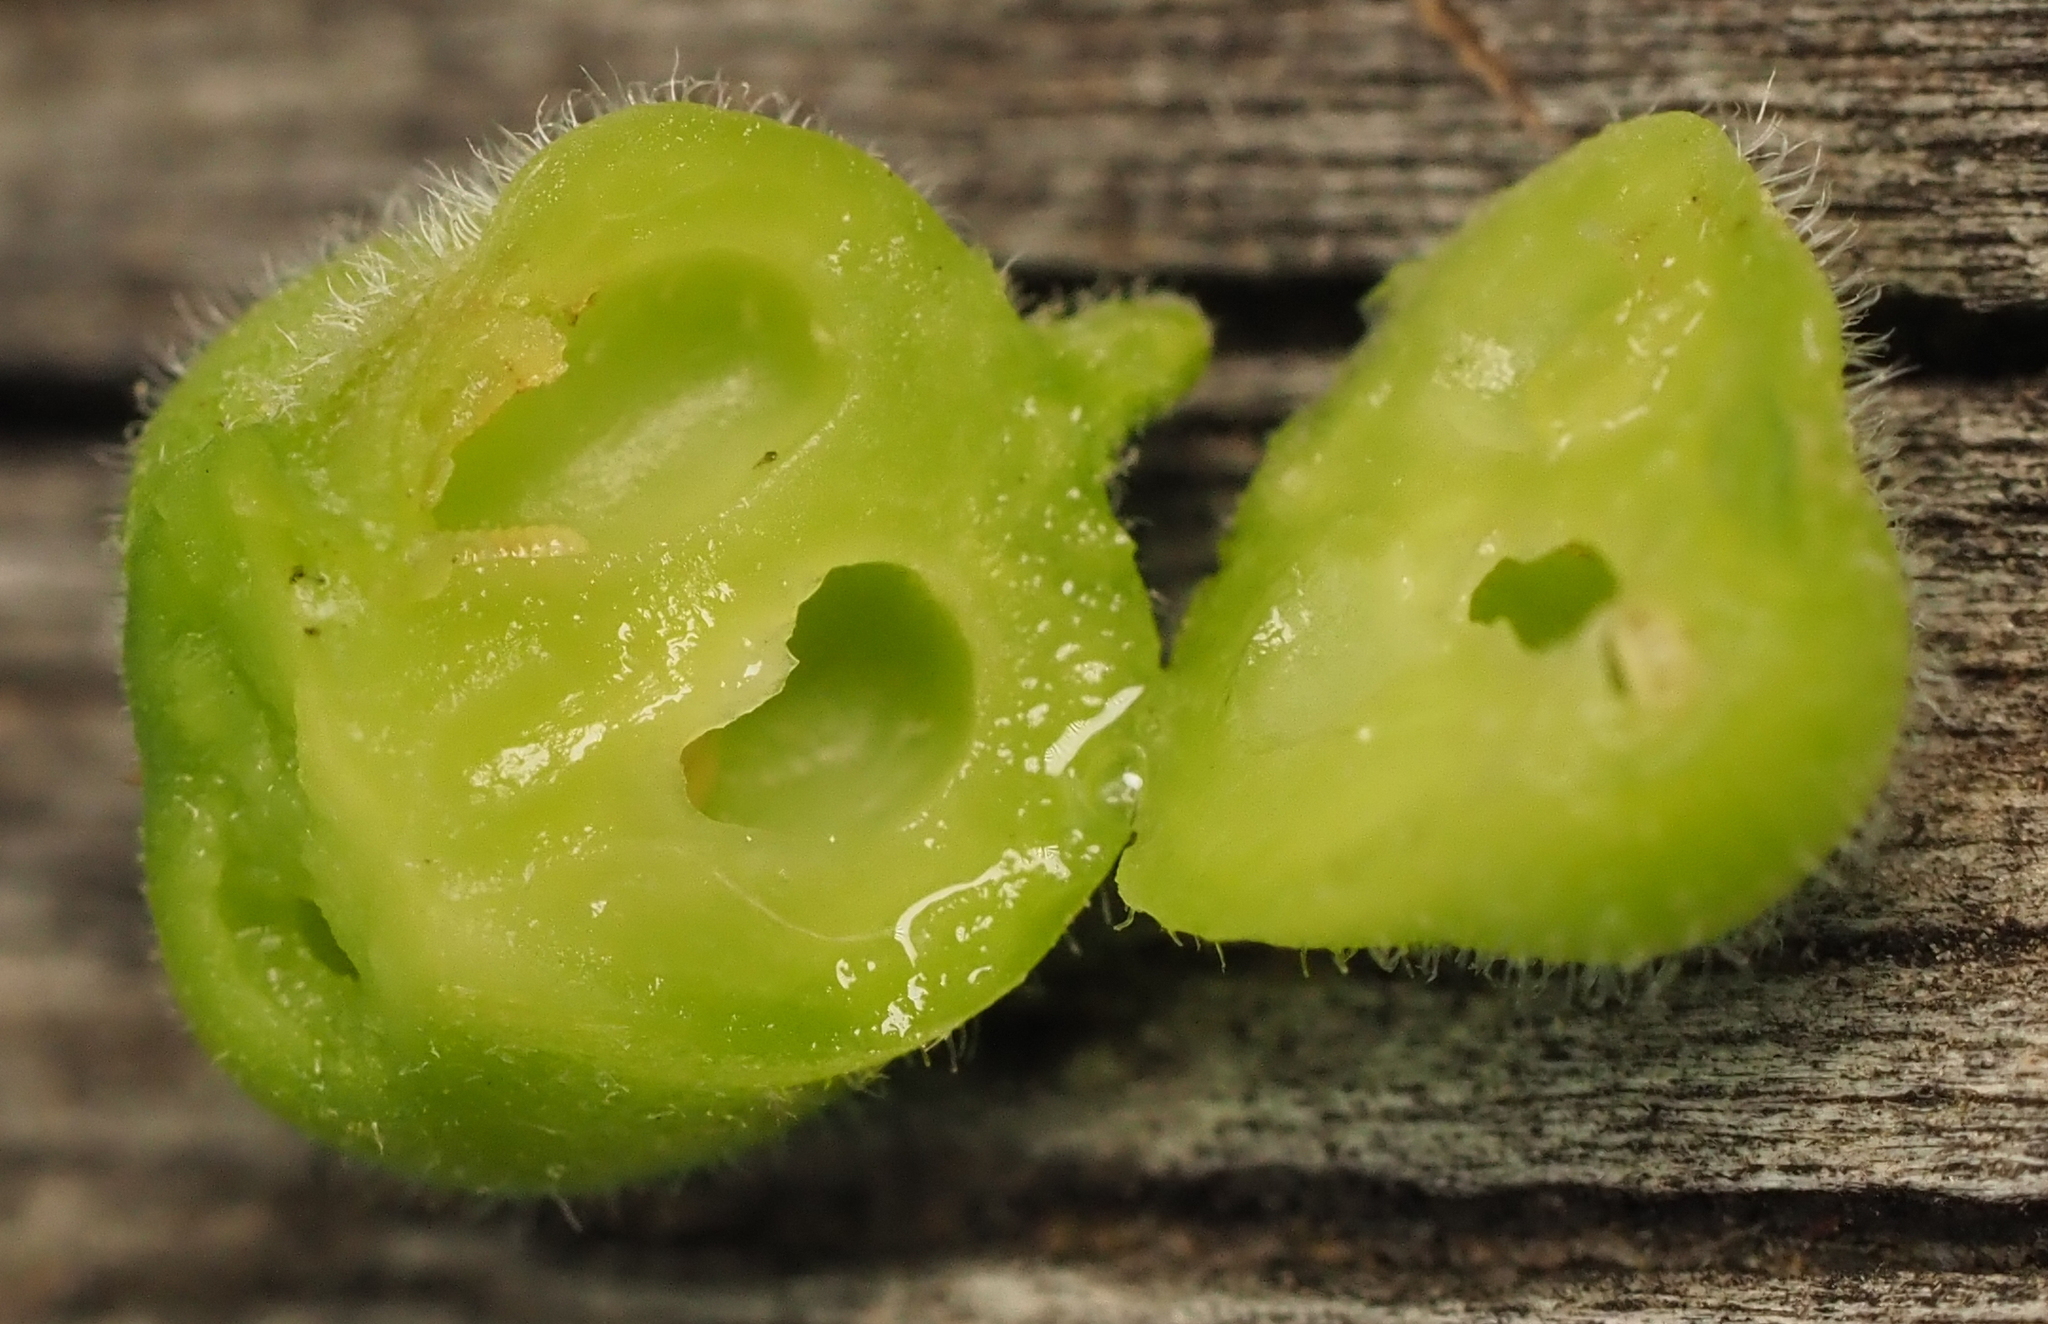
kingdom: Animalia
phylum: Arthropoda
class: Insecta
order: Diptera
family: Cecidomyiidae
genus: Celticecis
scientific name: Celticecis connata
